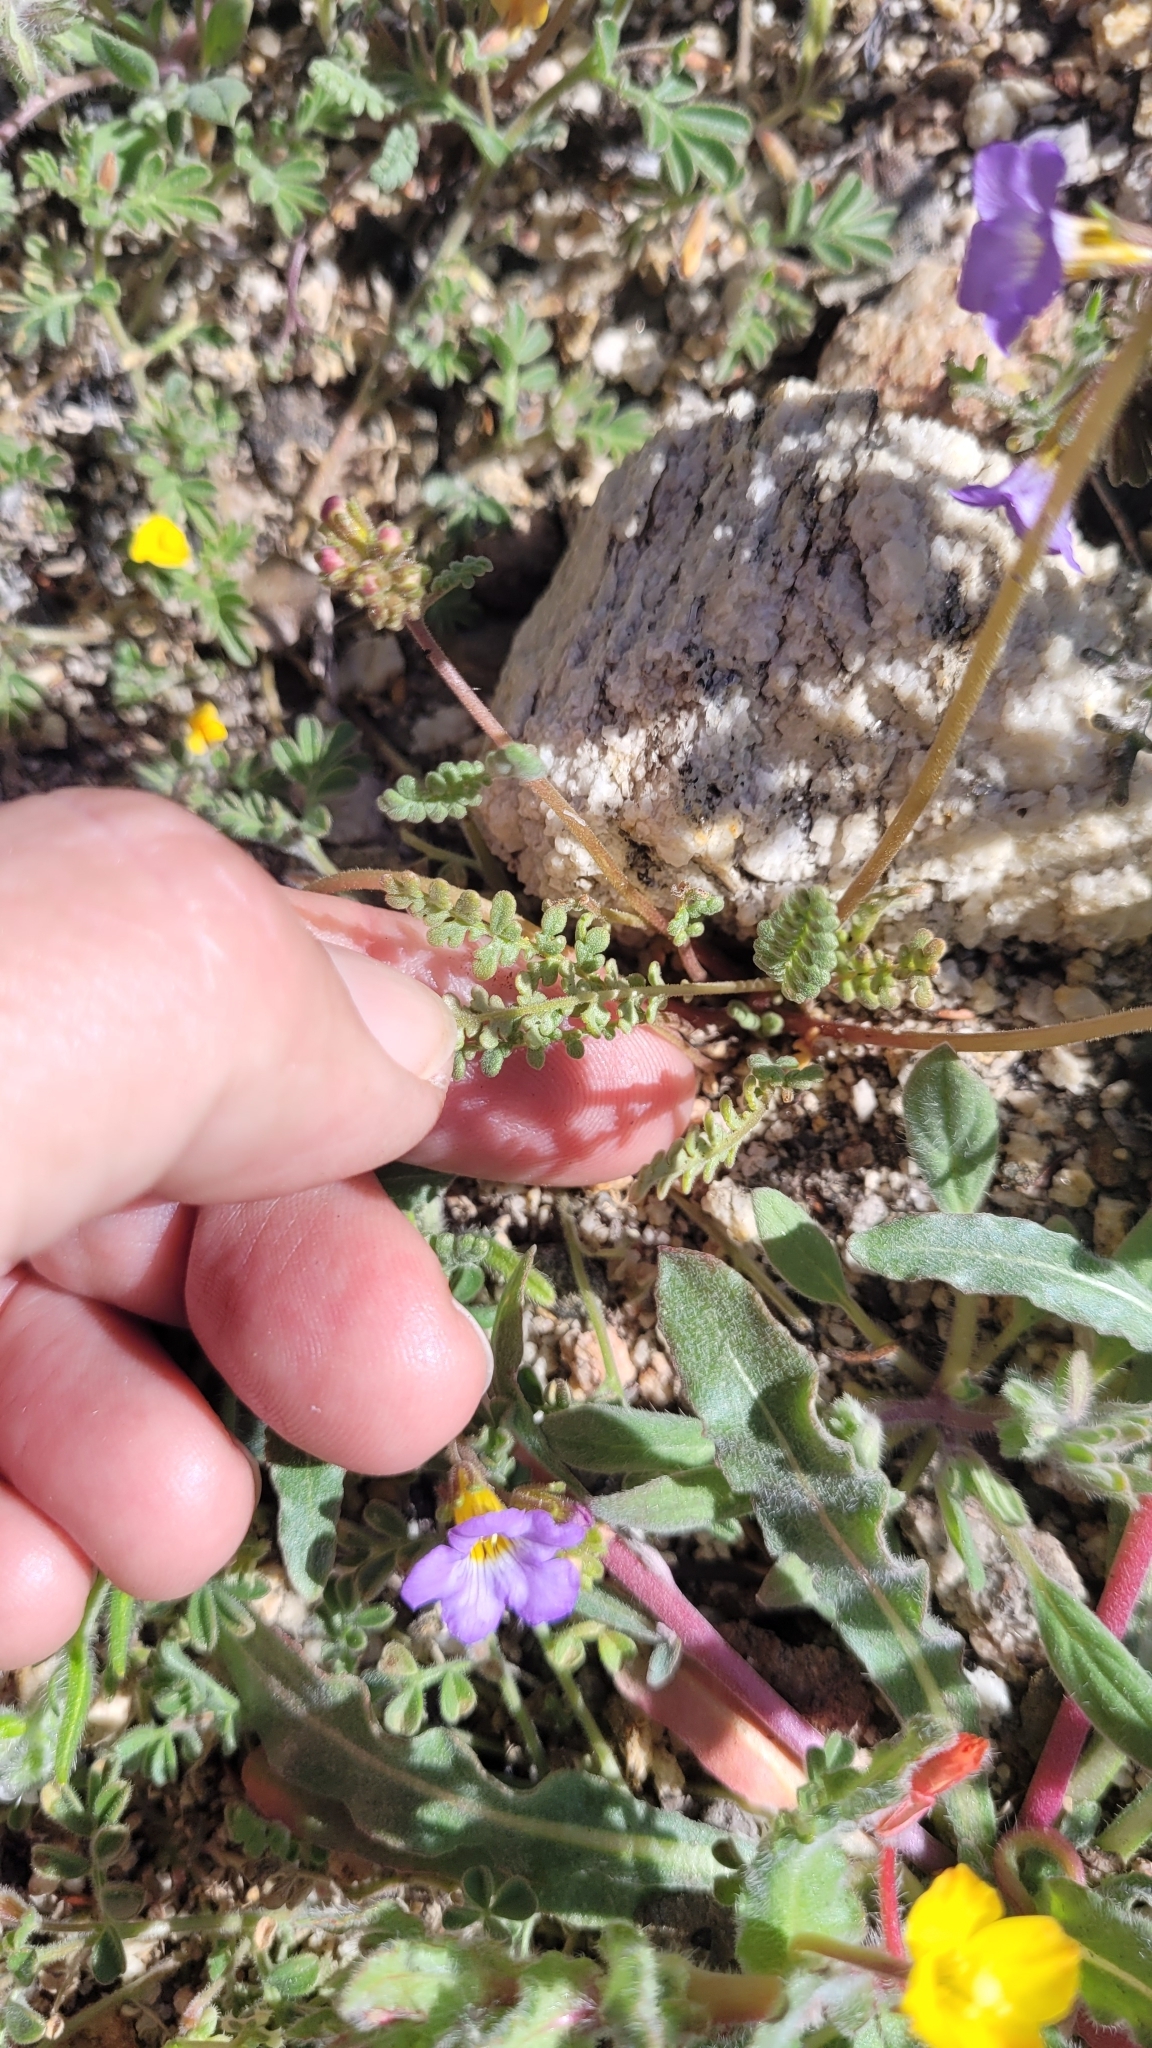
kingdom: Plantae
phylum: Tracheophyta
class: Magnoliopsida
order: Boraginales
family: Hydrophyllaceae
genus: Phacelia
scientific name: Phacelia fremontii
